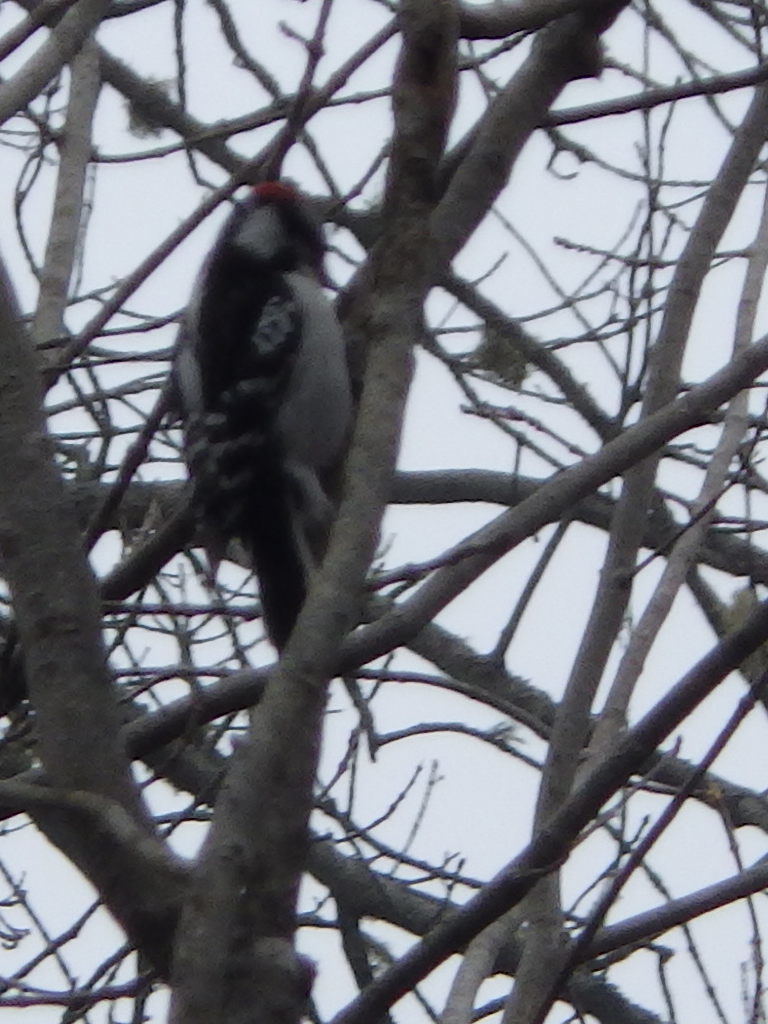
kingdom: Animalia
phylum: Chordata
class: Aves
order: Piciformes
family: Picidae
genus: Dryobates
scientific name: Dryobates pubescens
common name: Downy woodpecker
